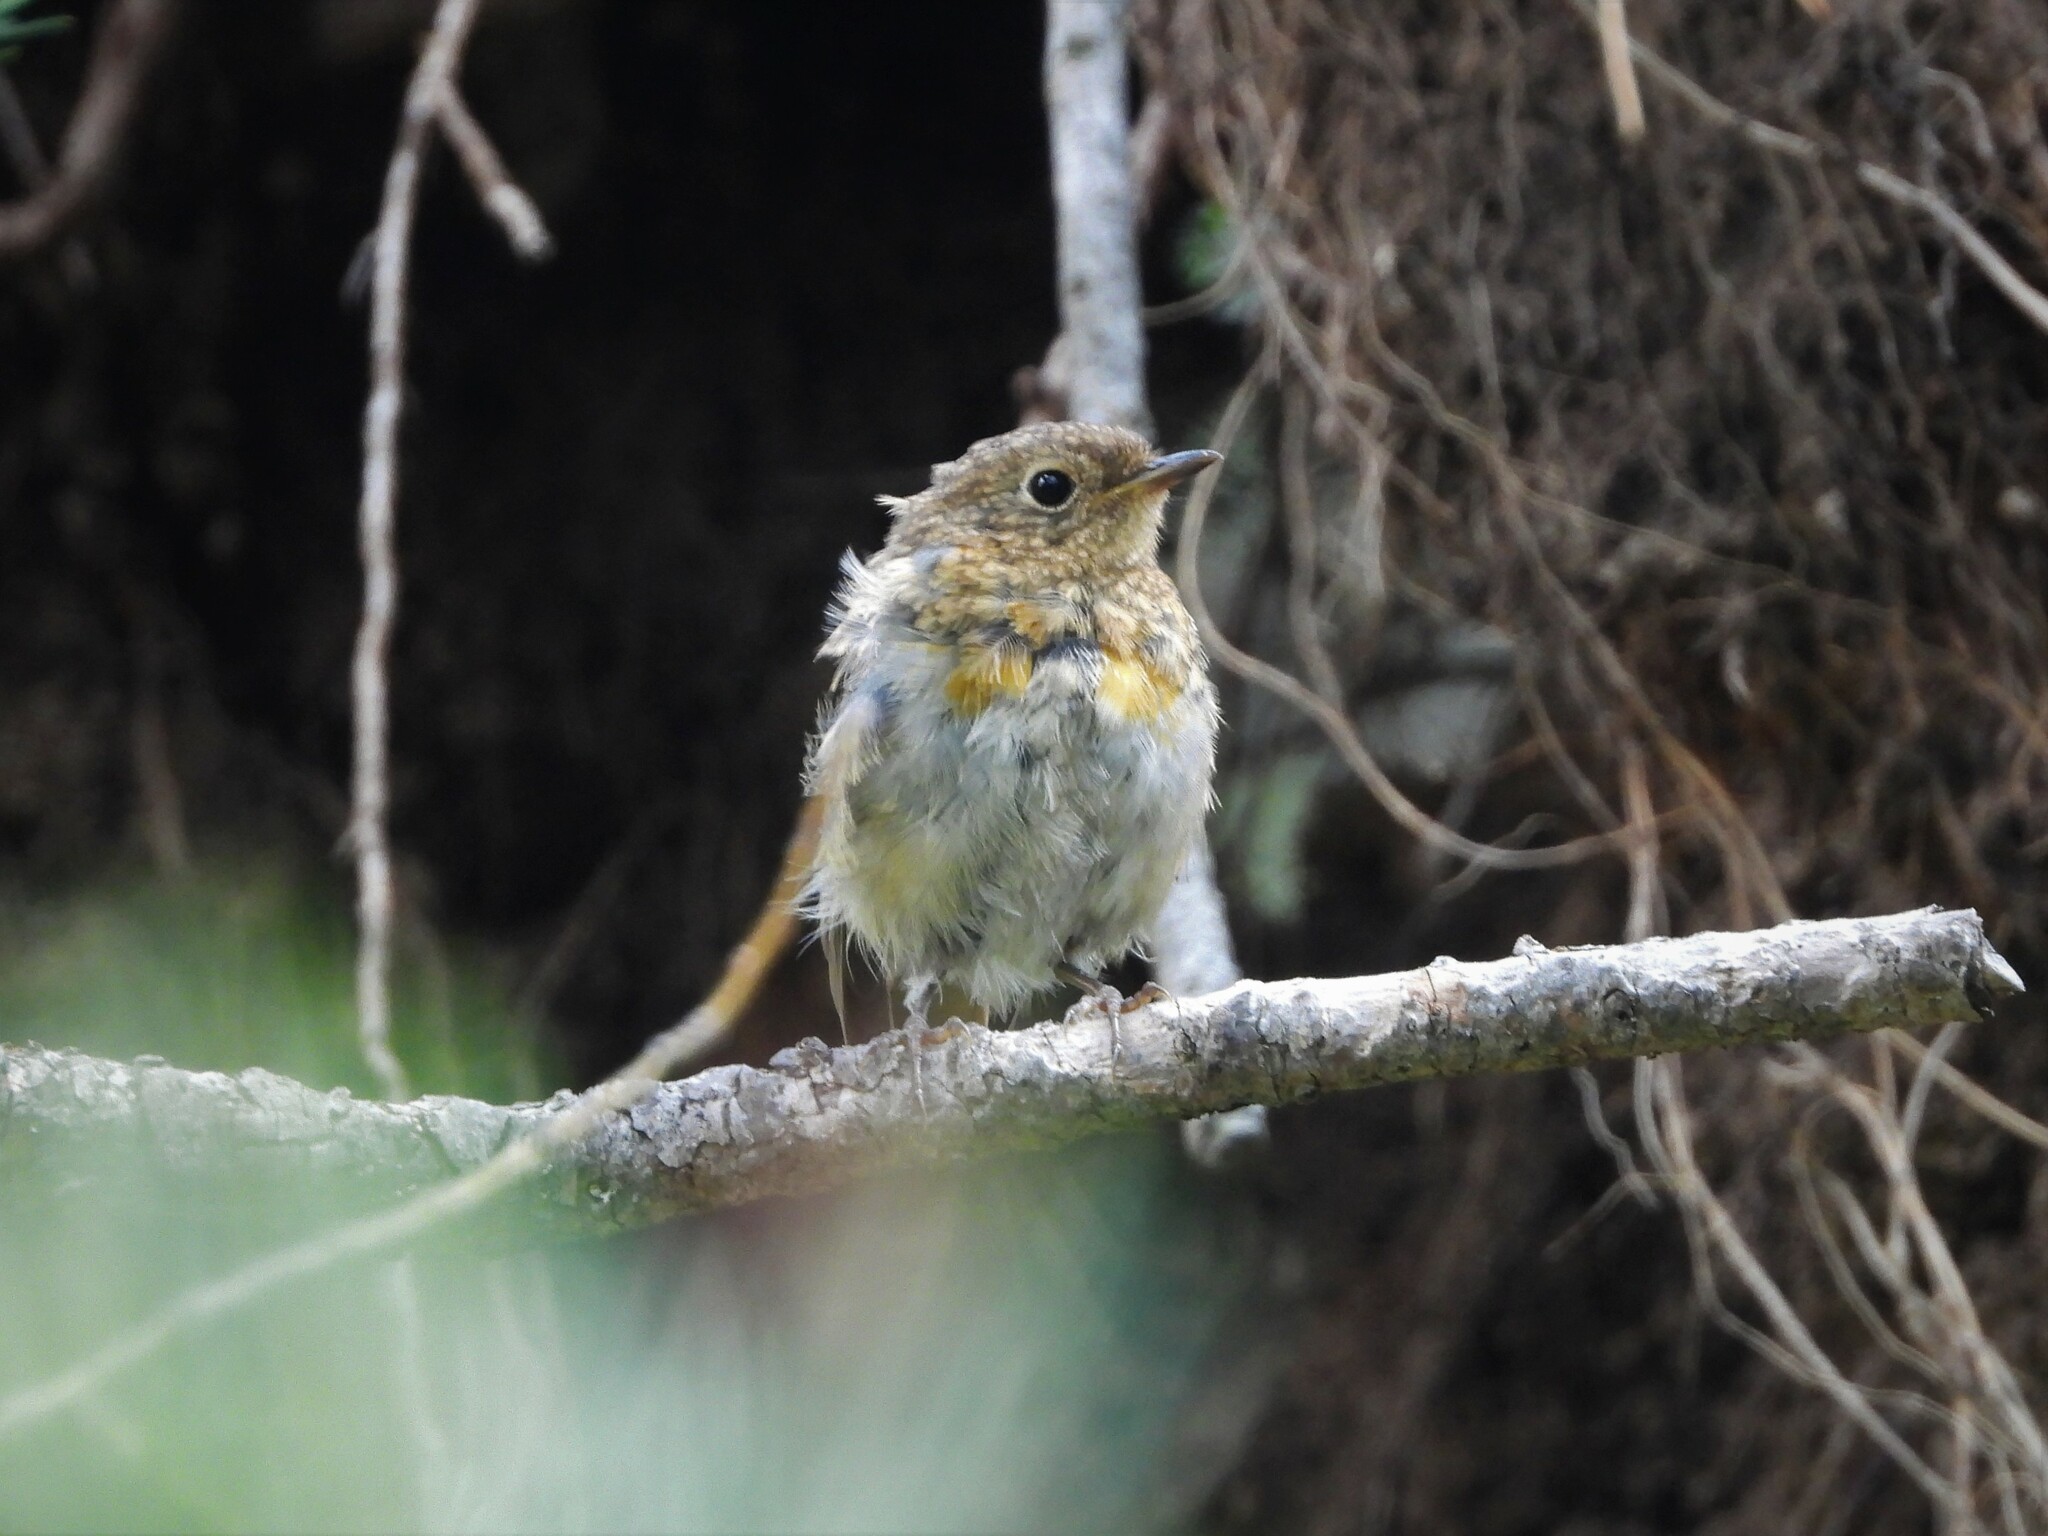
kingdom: Animalia
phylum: Chordata
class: Aves
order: Passeriformes
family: Muscicapidae
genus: Erithacus
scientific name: Erithacus rubecula
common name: European robin
